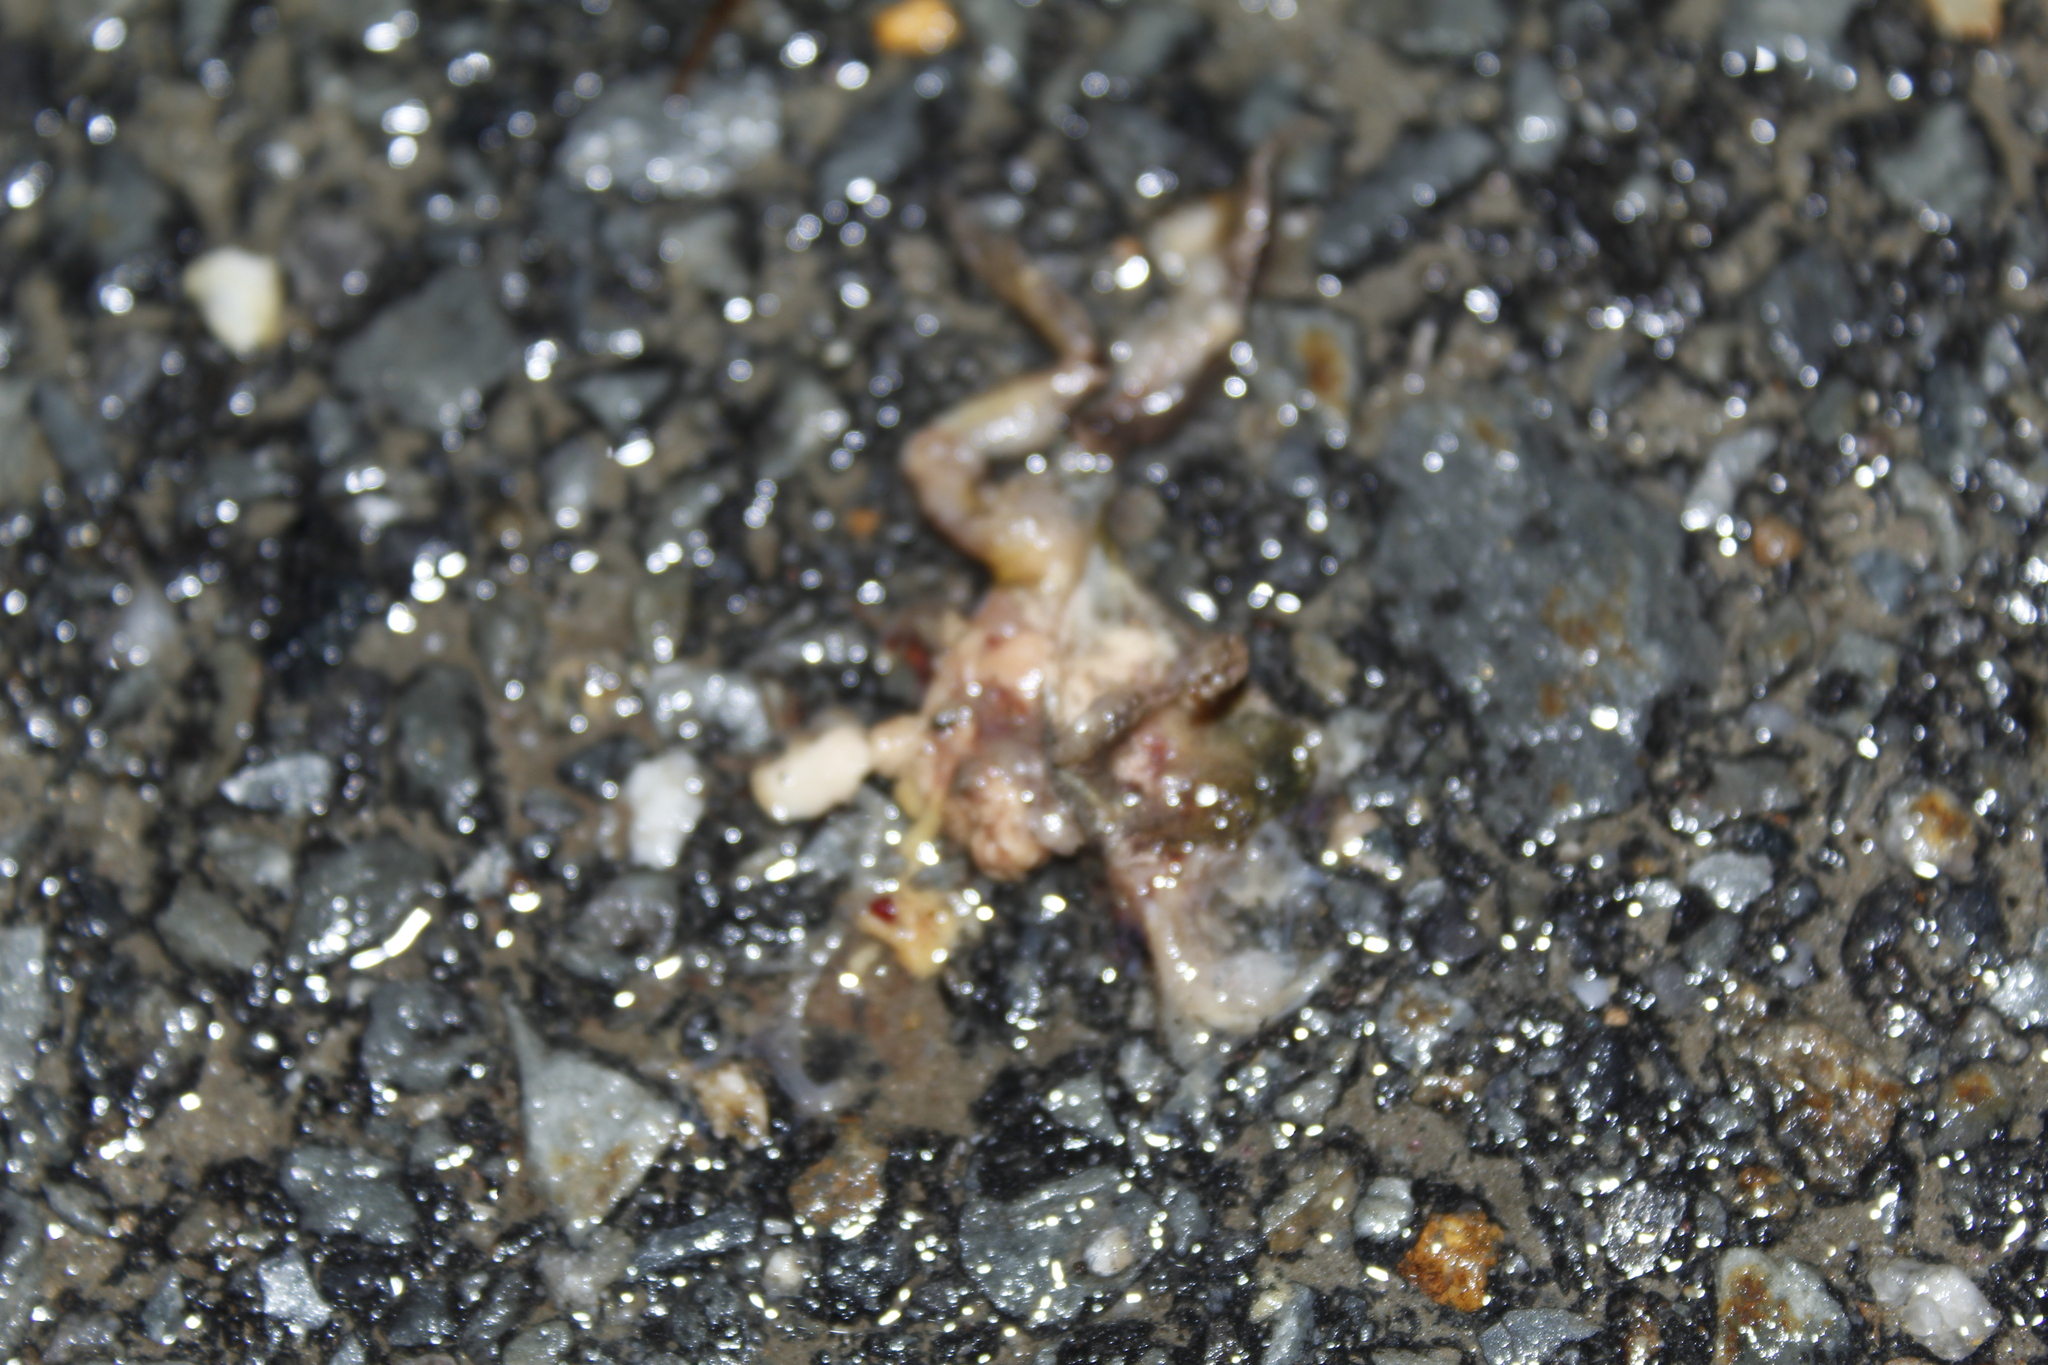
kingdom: Animalia
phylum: Chordata
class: Amphibia
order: Anura
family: Hylidae
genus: Pseudacris
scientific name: Pseudacris crucifer
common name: Spring peeper
